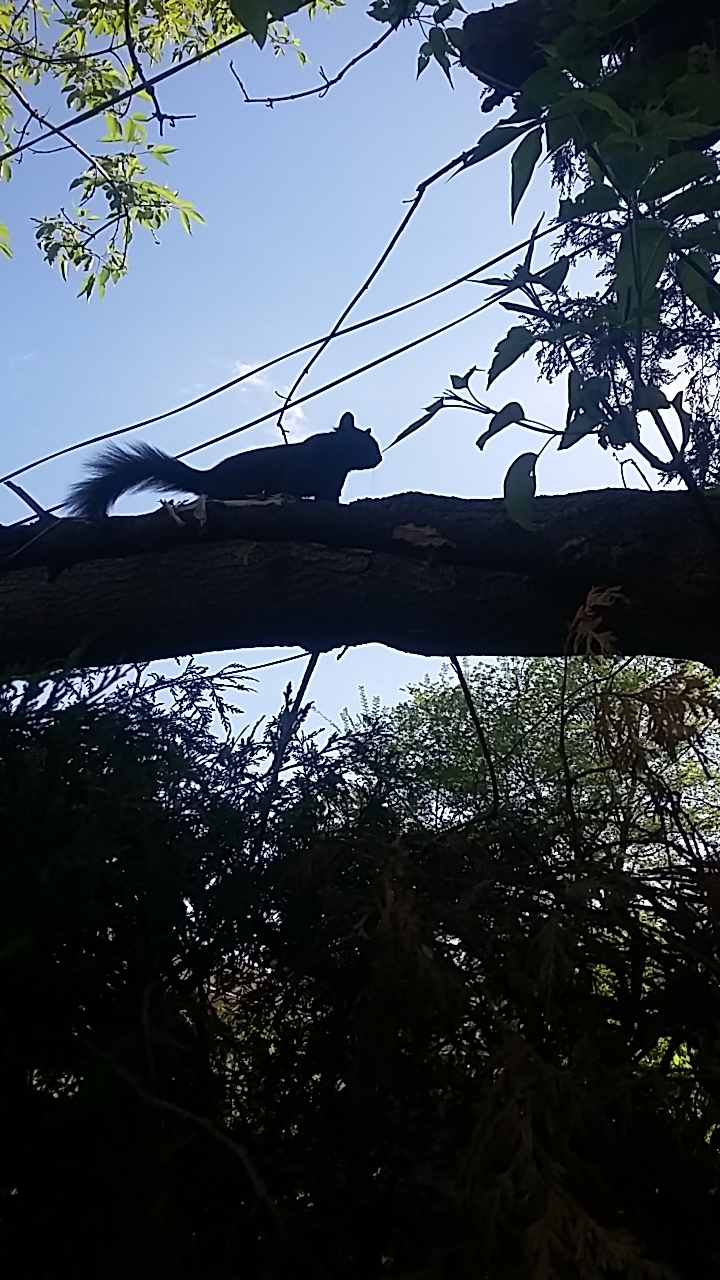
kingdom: Animalia
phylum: Chordata
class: Mammalia
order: Rodentia
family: Sciuridae
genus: Sciurus
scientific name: Sciurus carolinensis
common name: Eastern gray squirrel
